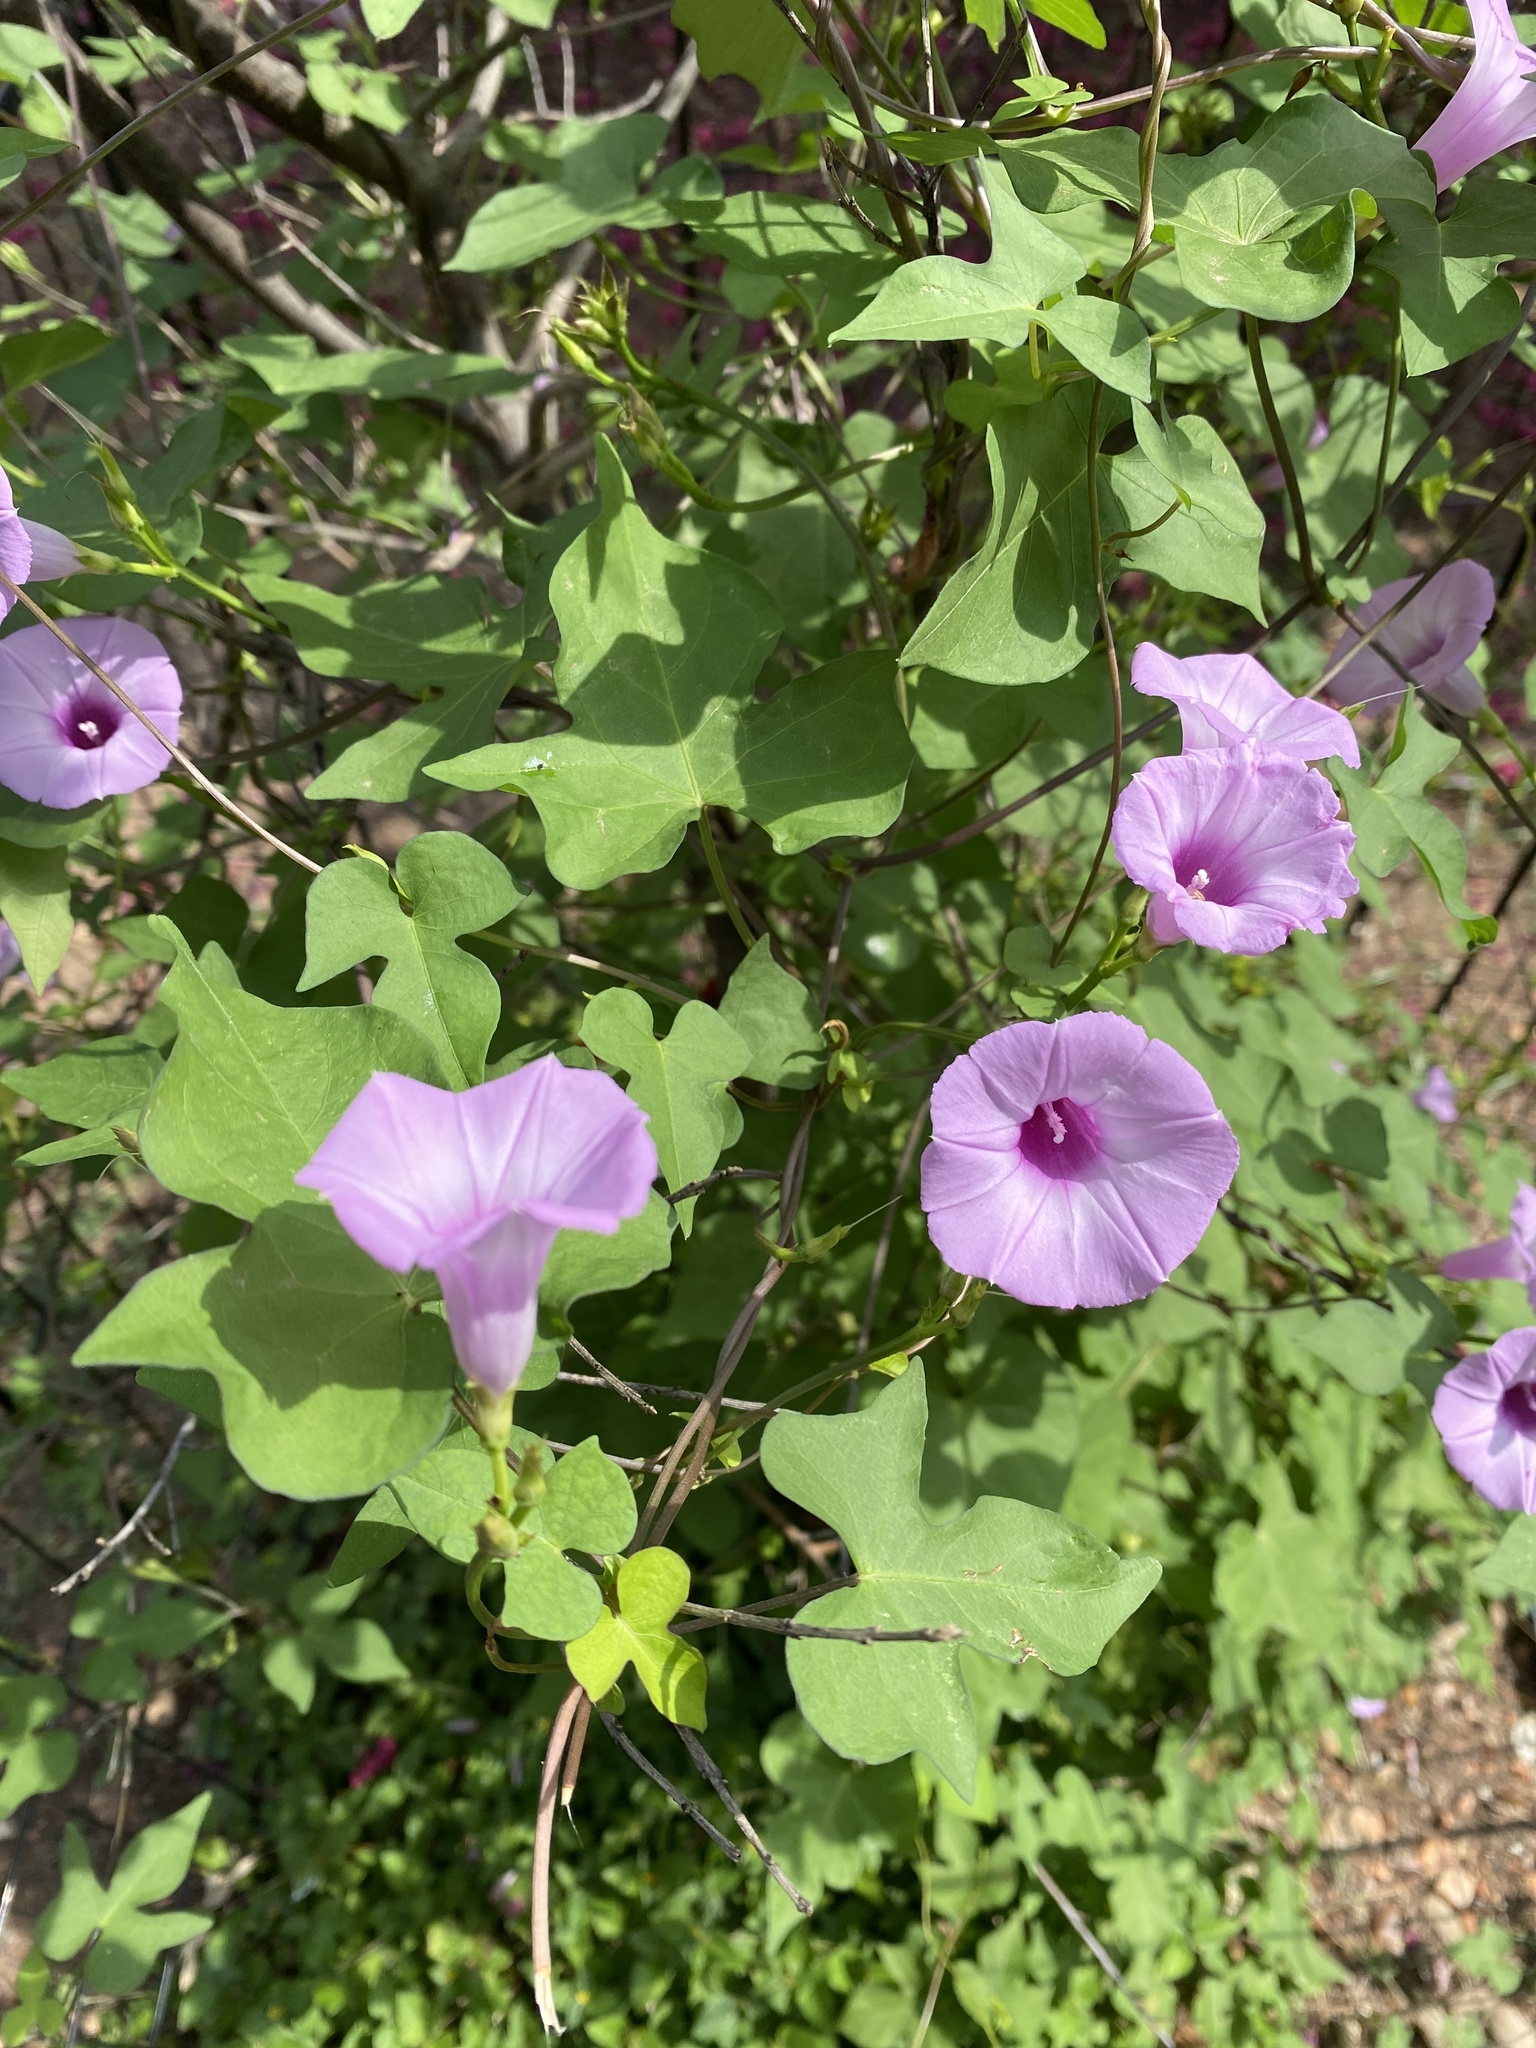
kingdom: Plantae
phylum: Tracheophyta
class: Magnoliopsida
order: Solanales
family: Convolvulaceae
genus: Ipomoea
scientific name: Ipomoea cordatotriloba
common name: Cotton morning glory
